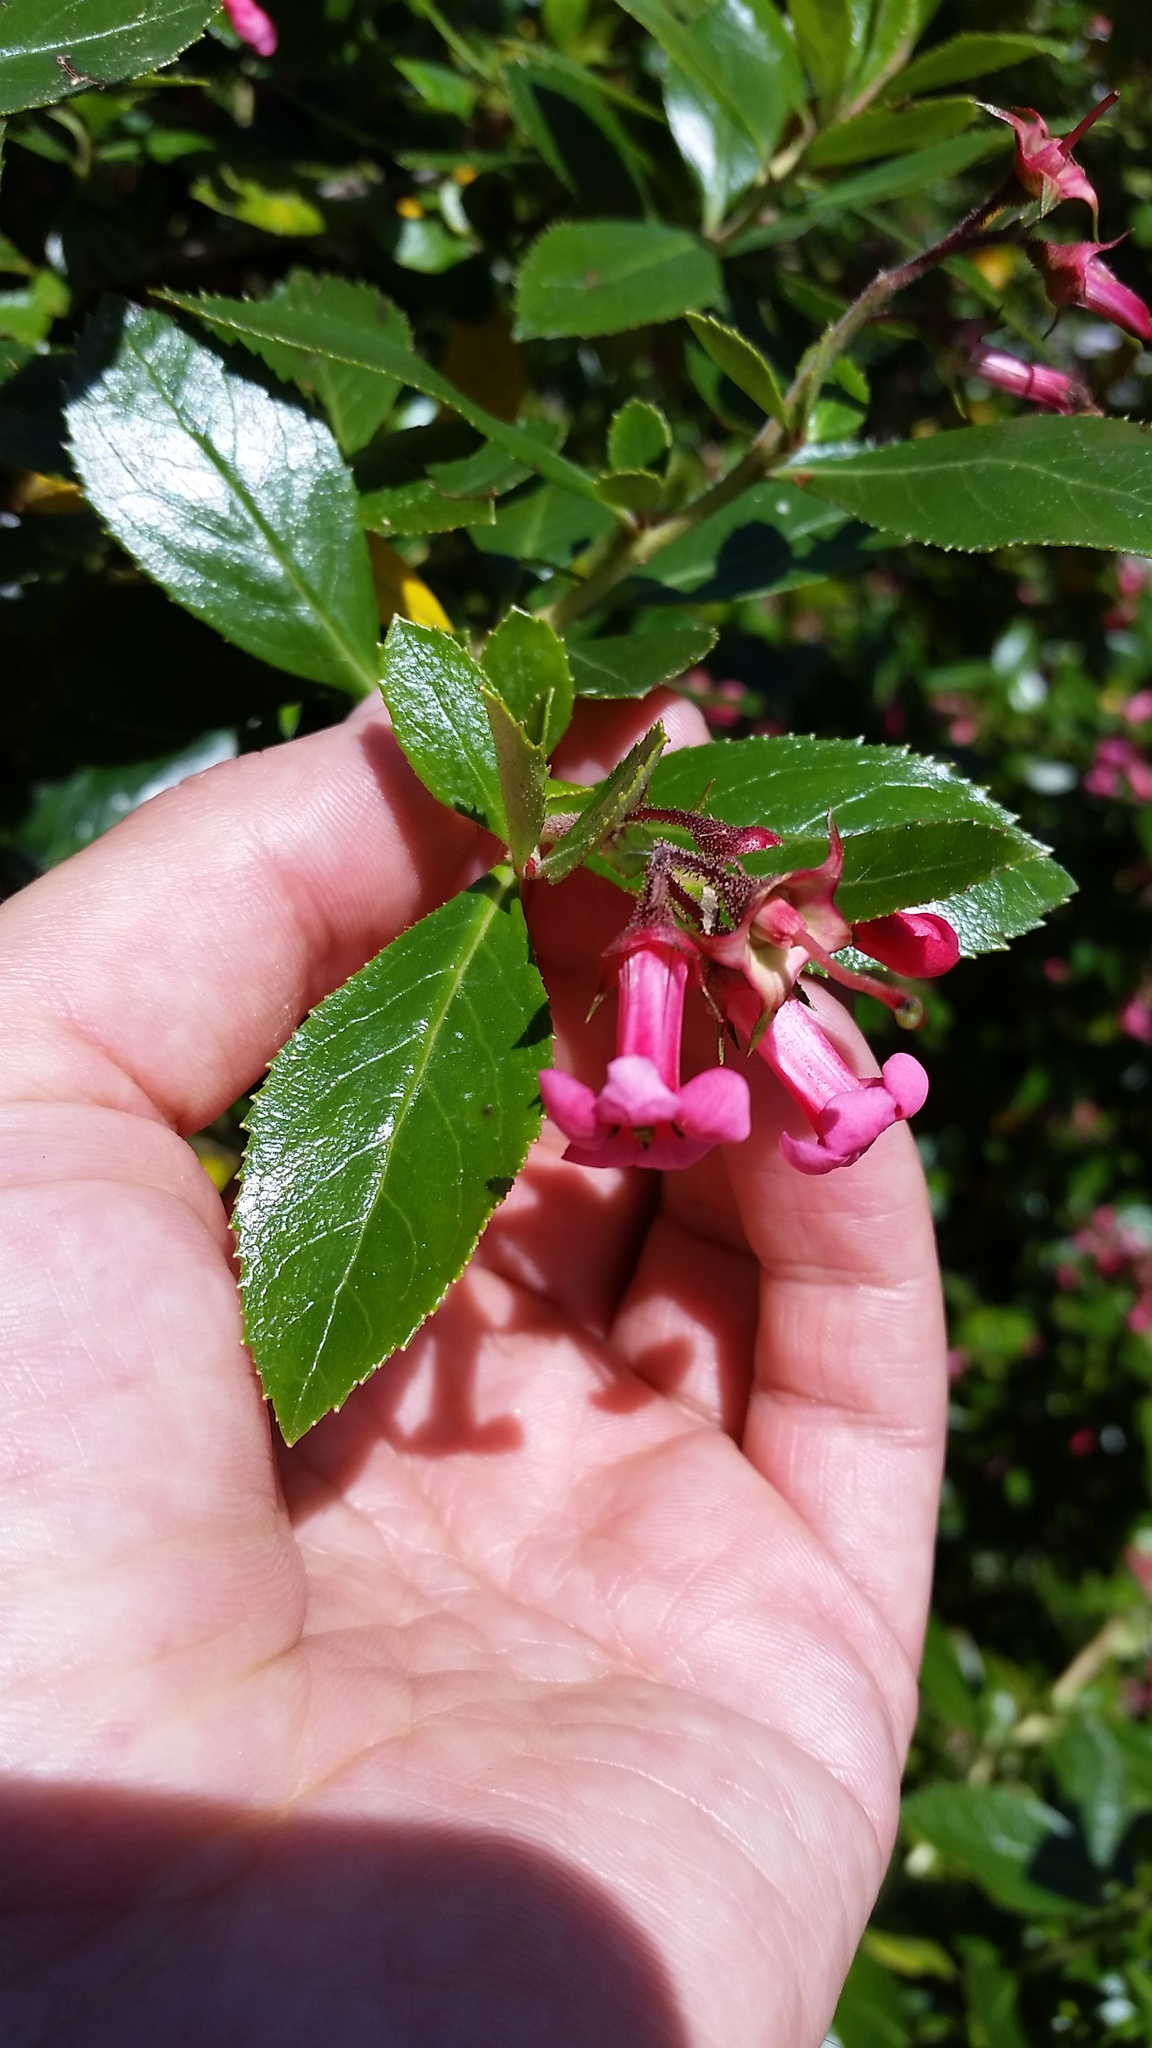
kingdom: Plantae
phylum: Tracheophyta
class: Magnoliopsida
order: Escalloniales
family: Escalloniaceae
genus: Escallonia
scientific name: Escallonia rubra
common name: Redclaws
